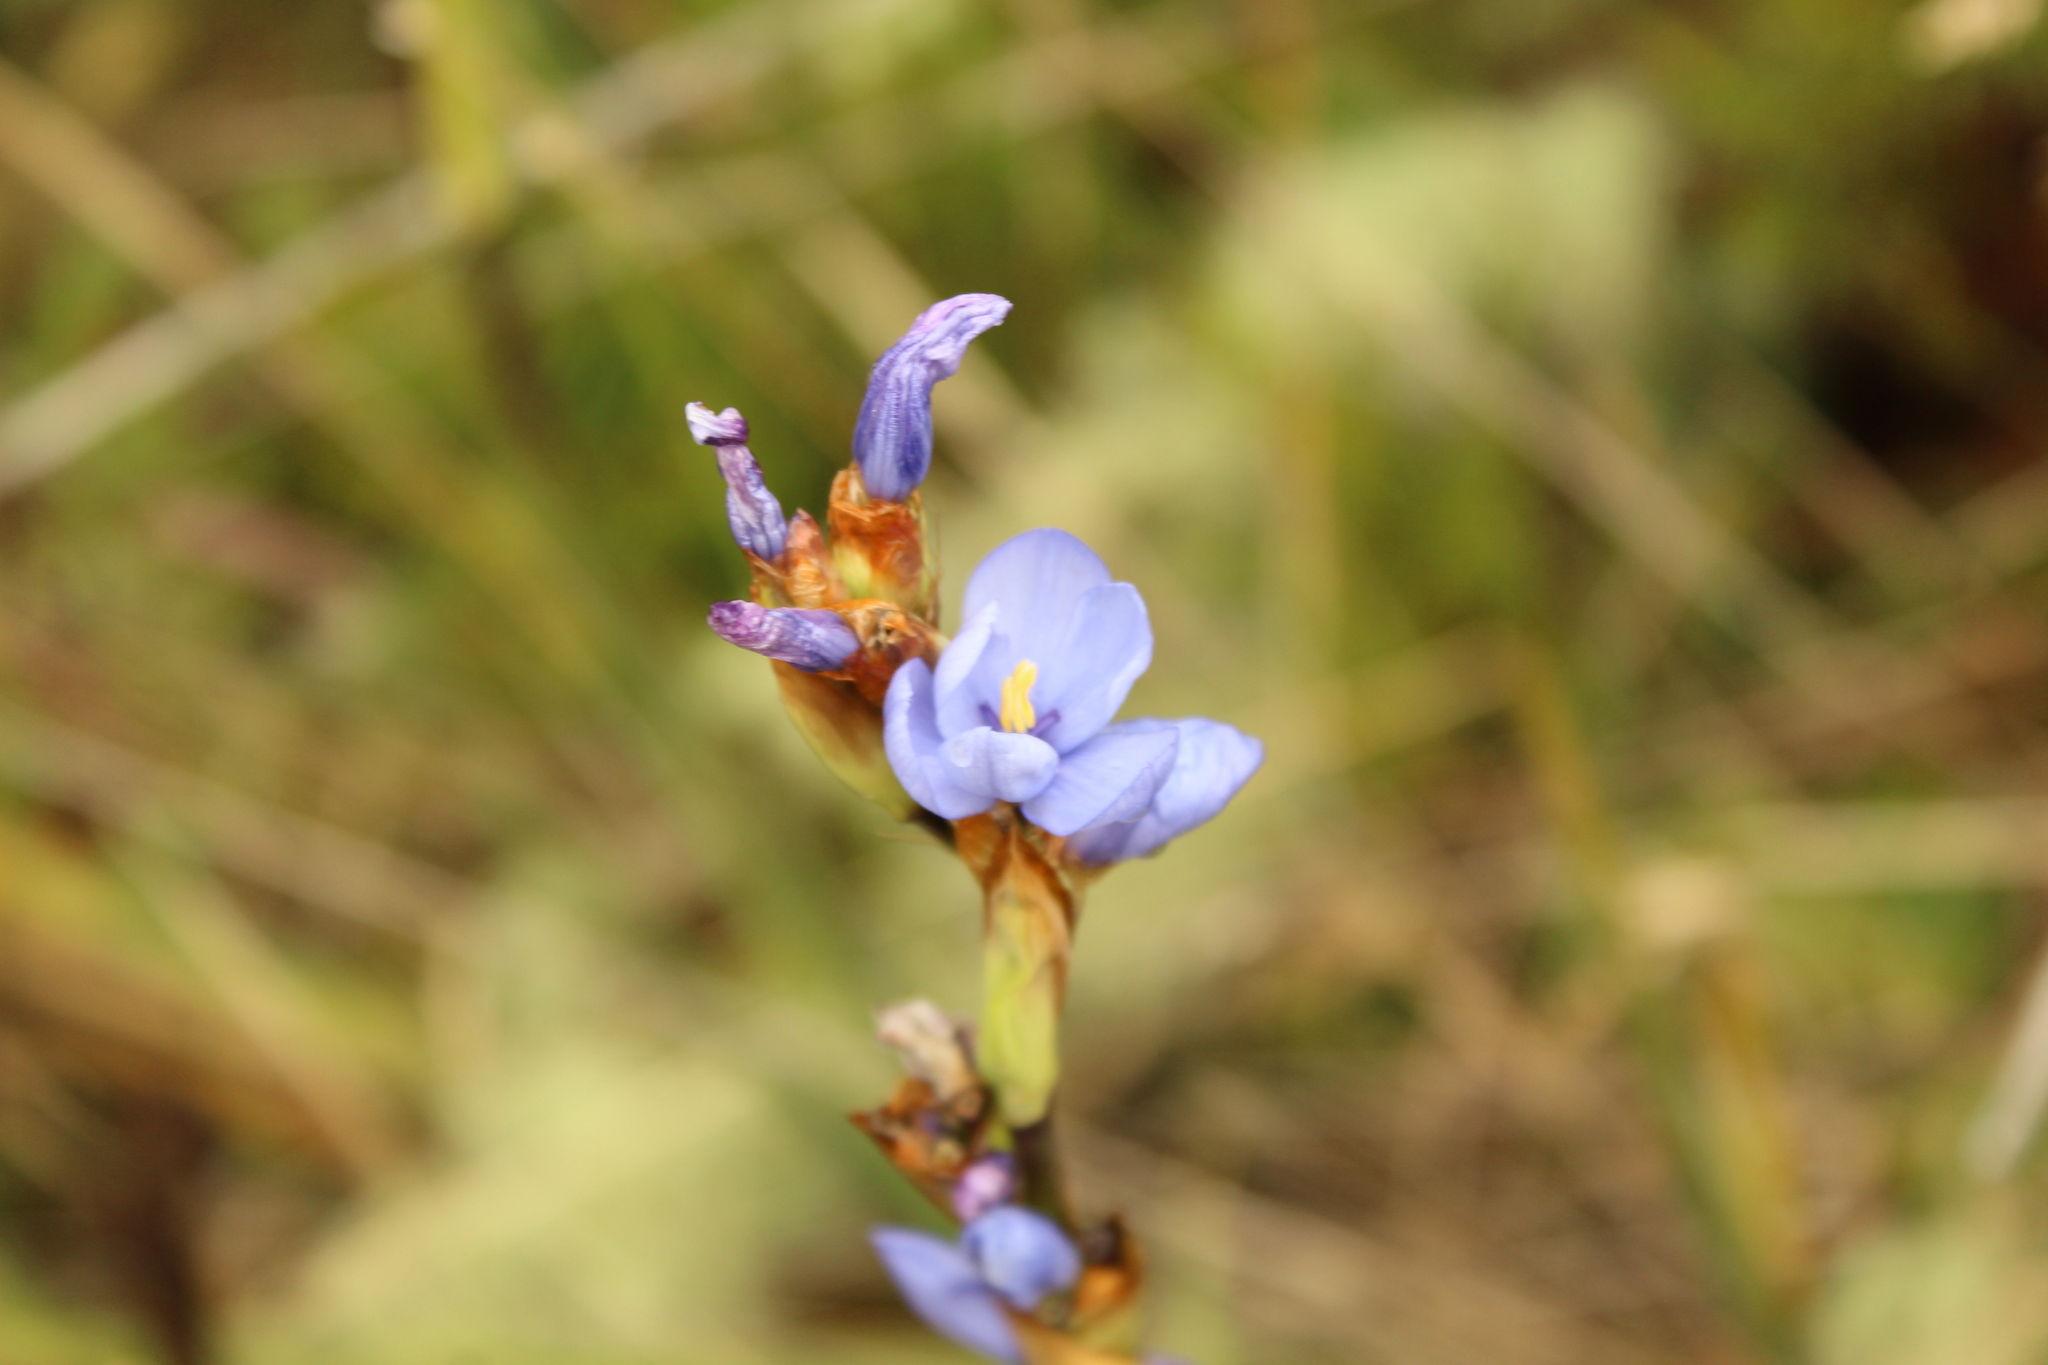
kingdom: Plantae
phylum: Tracheophyta
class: Liliopsida
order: Asparagales
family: Iridaceae
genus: Orthrosanthus
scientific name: Orthrosanthus chimboracensis
